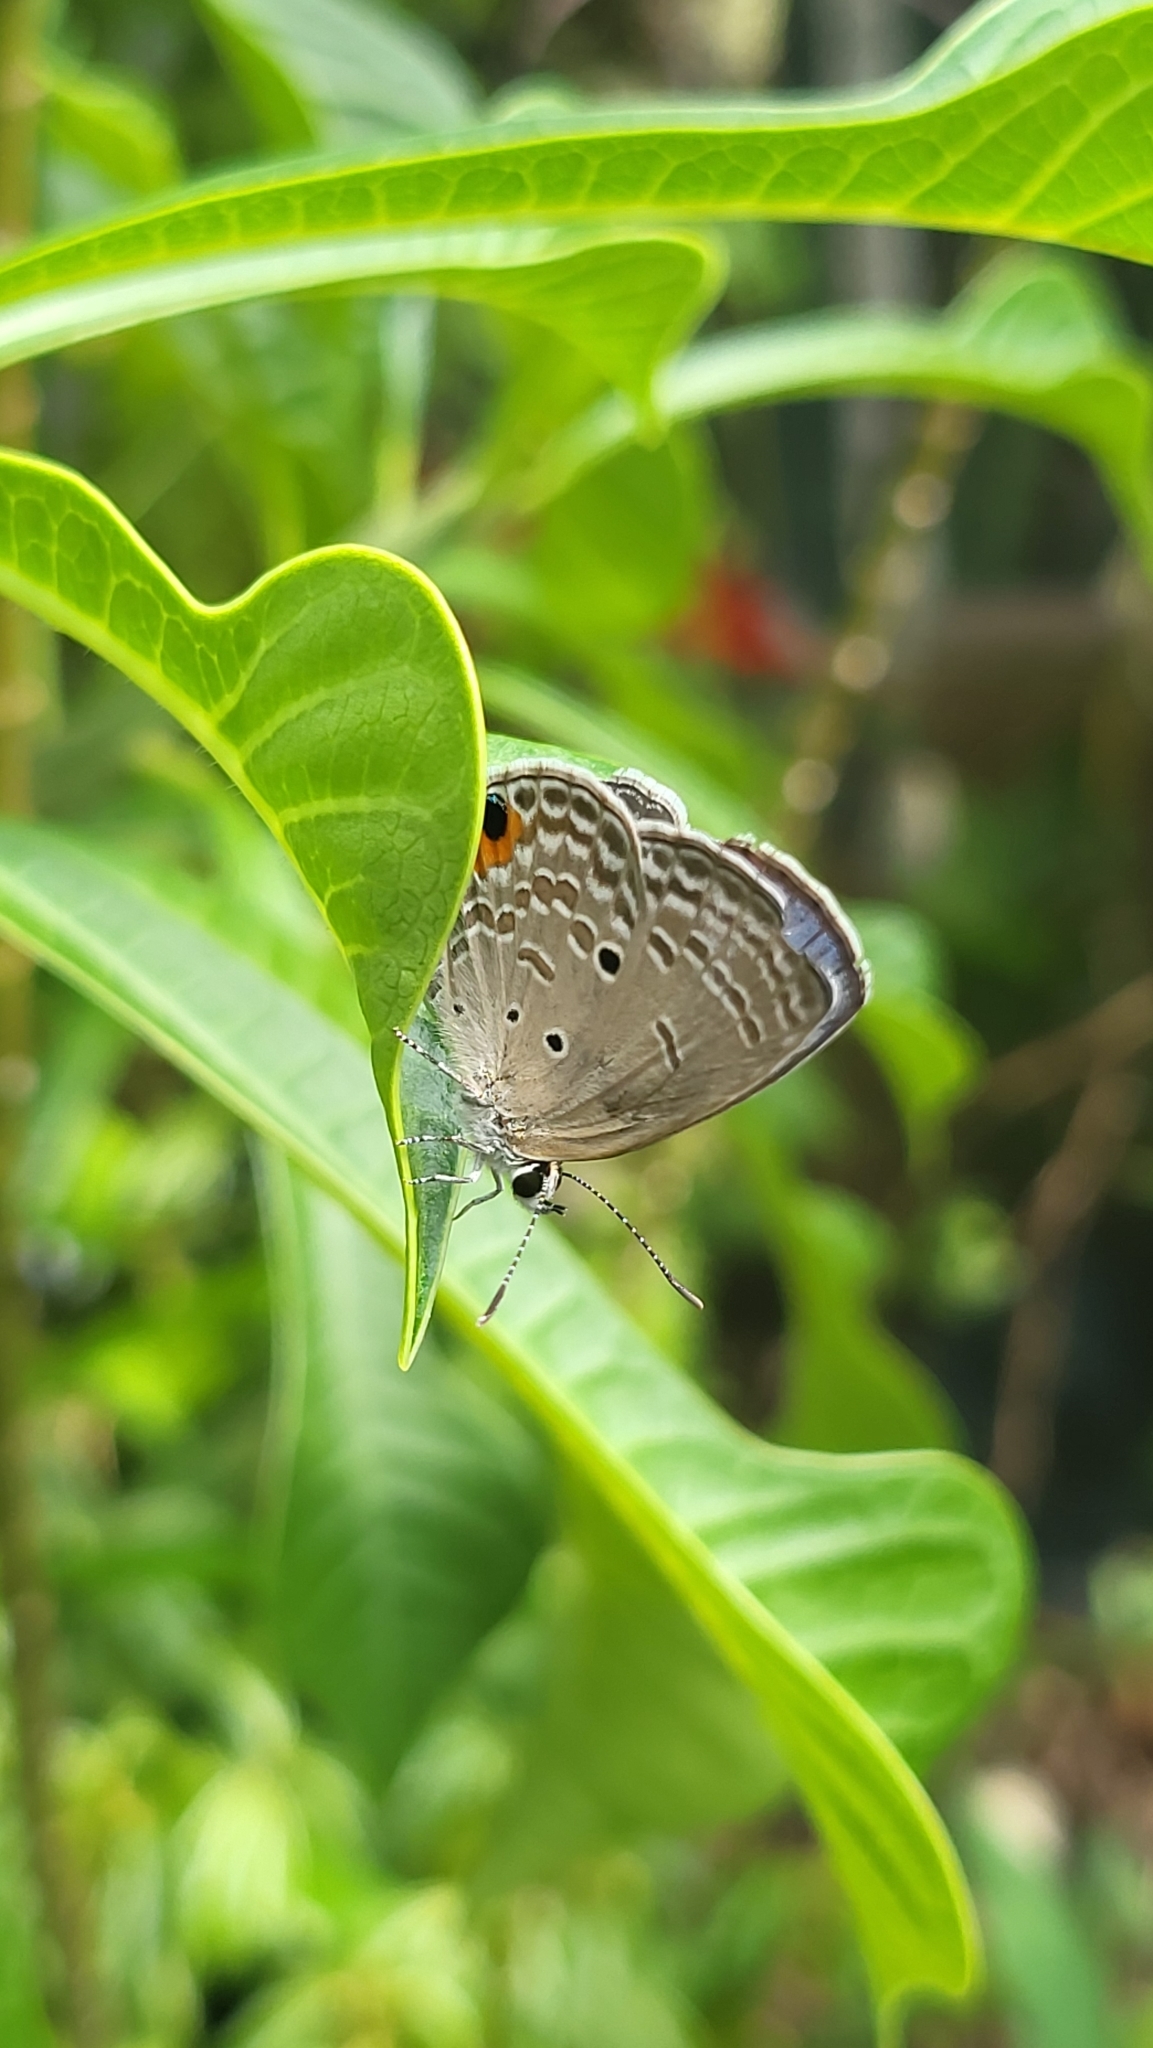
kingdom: Animalia
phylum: Arthropoda
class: Insecta
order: Lepidoptera
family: Lycaenidae
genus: Luthrodes
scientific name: Luthrodes pandava
